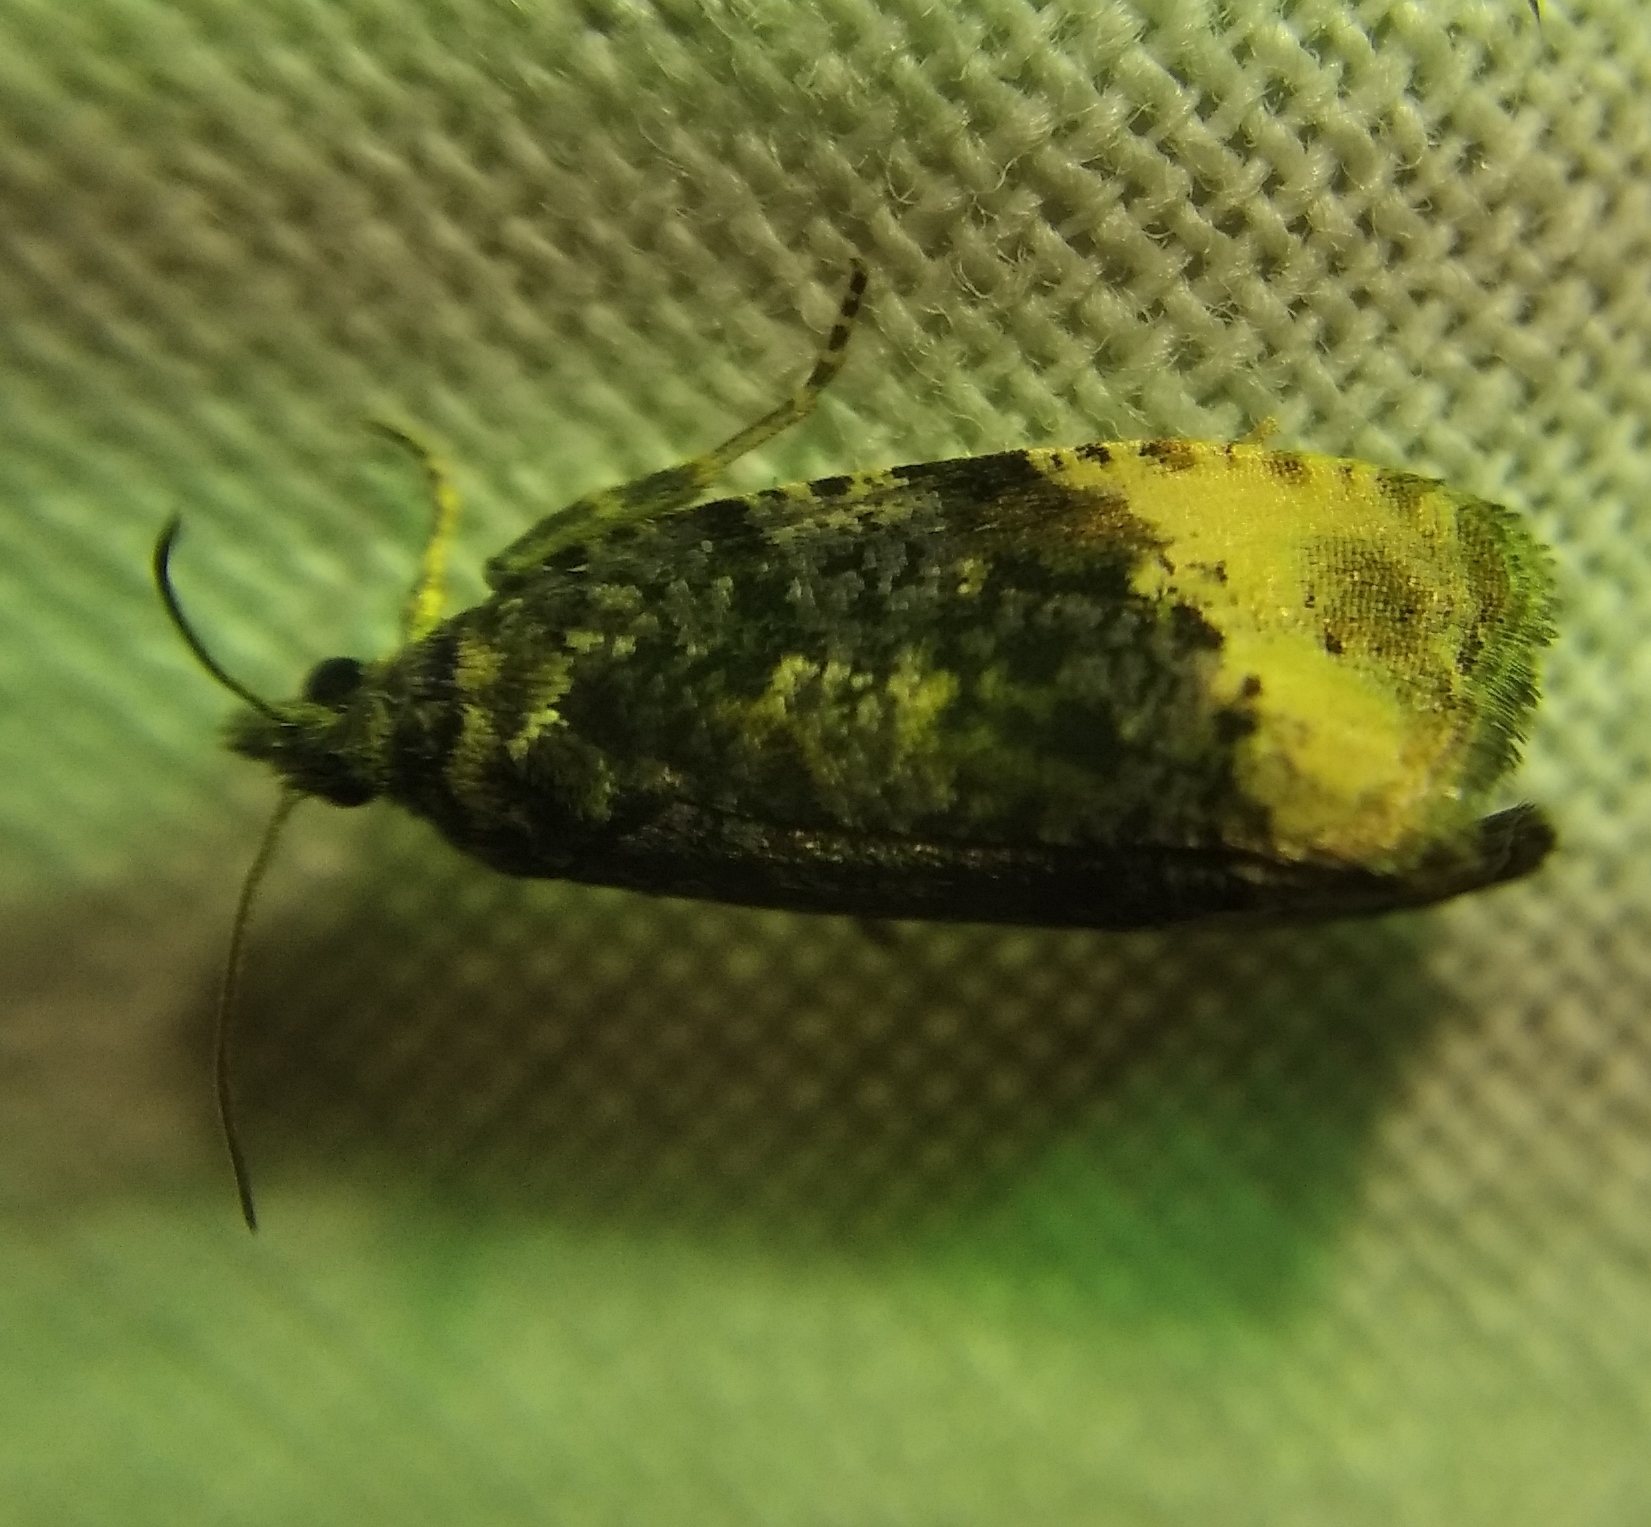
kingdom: Animalia
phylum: Arthropoda
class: Insecta
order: Lepidoptera
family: Tortricidae
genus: Hedya
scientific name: Hedya ochroleucana
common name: Buff-tipped marble
